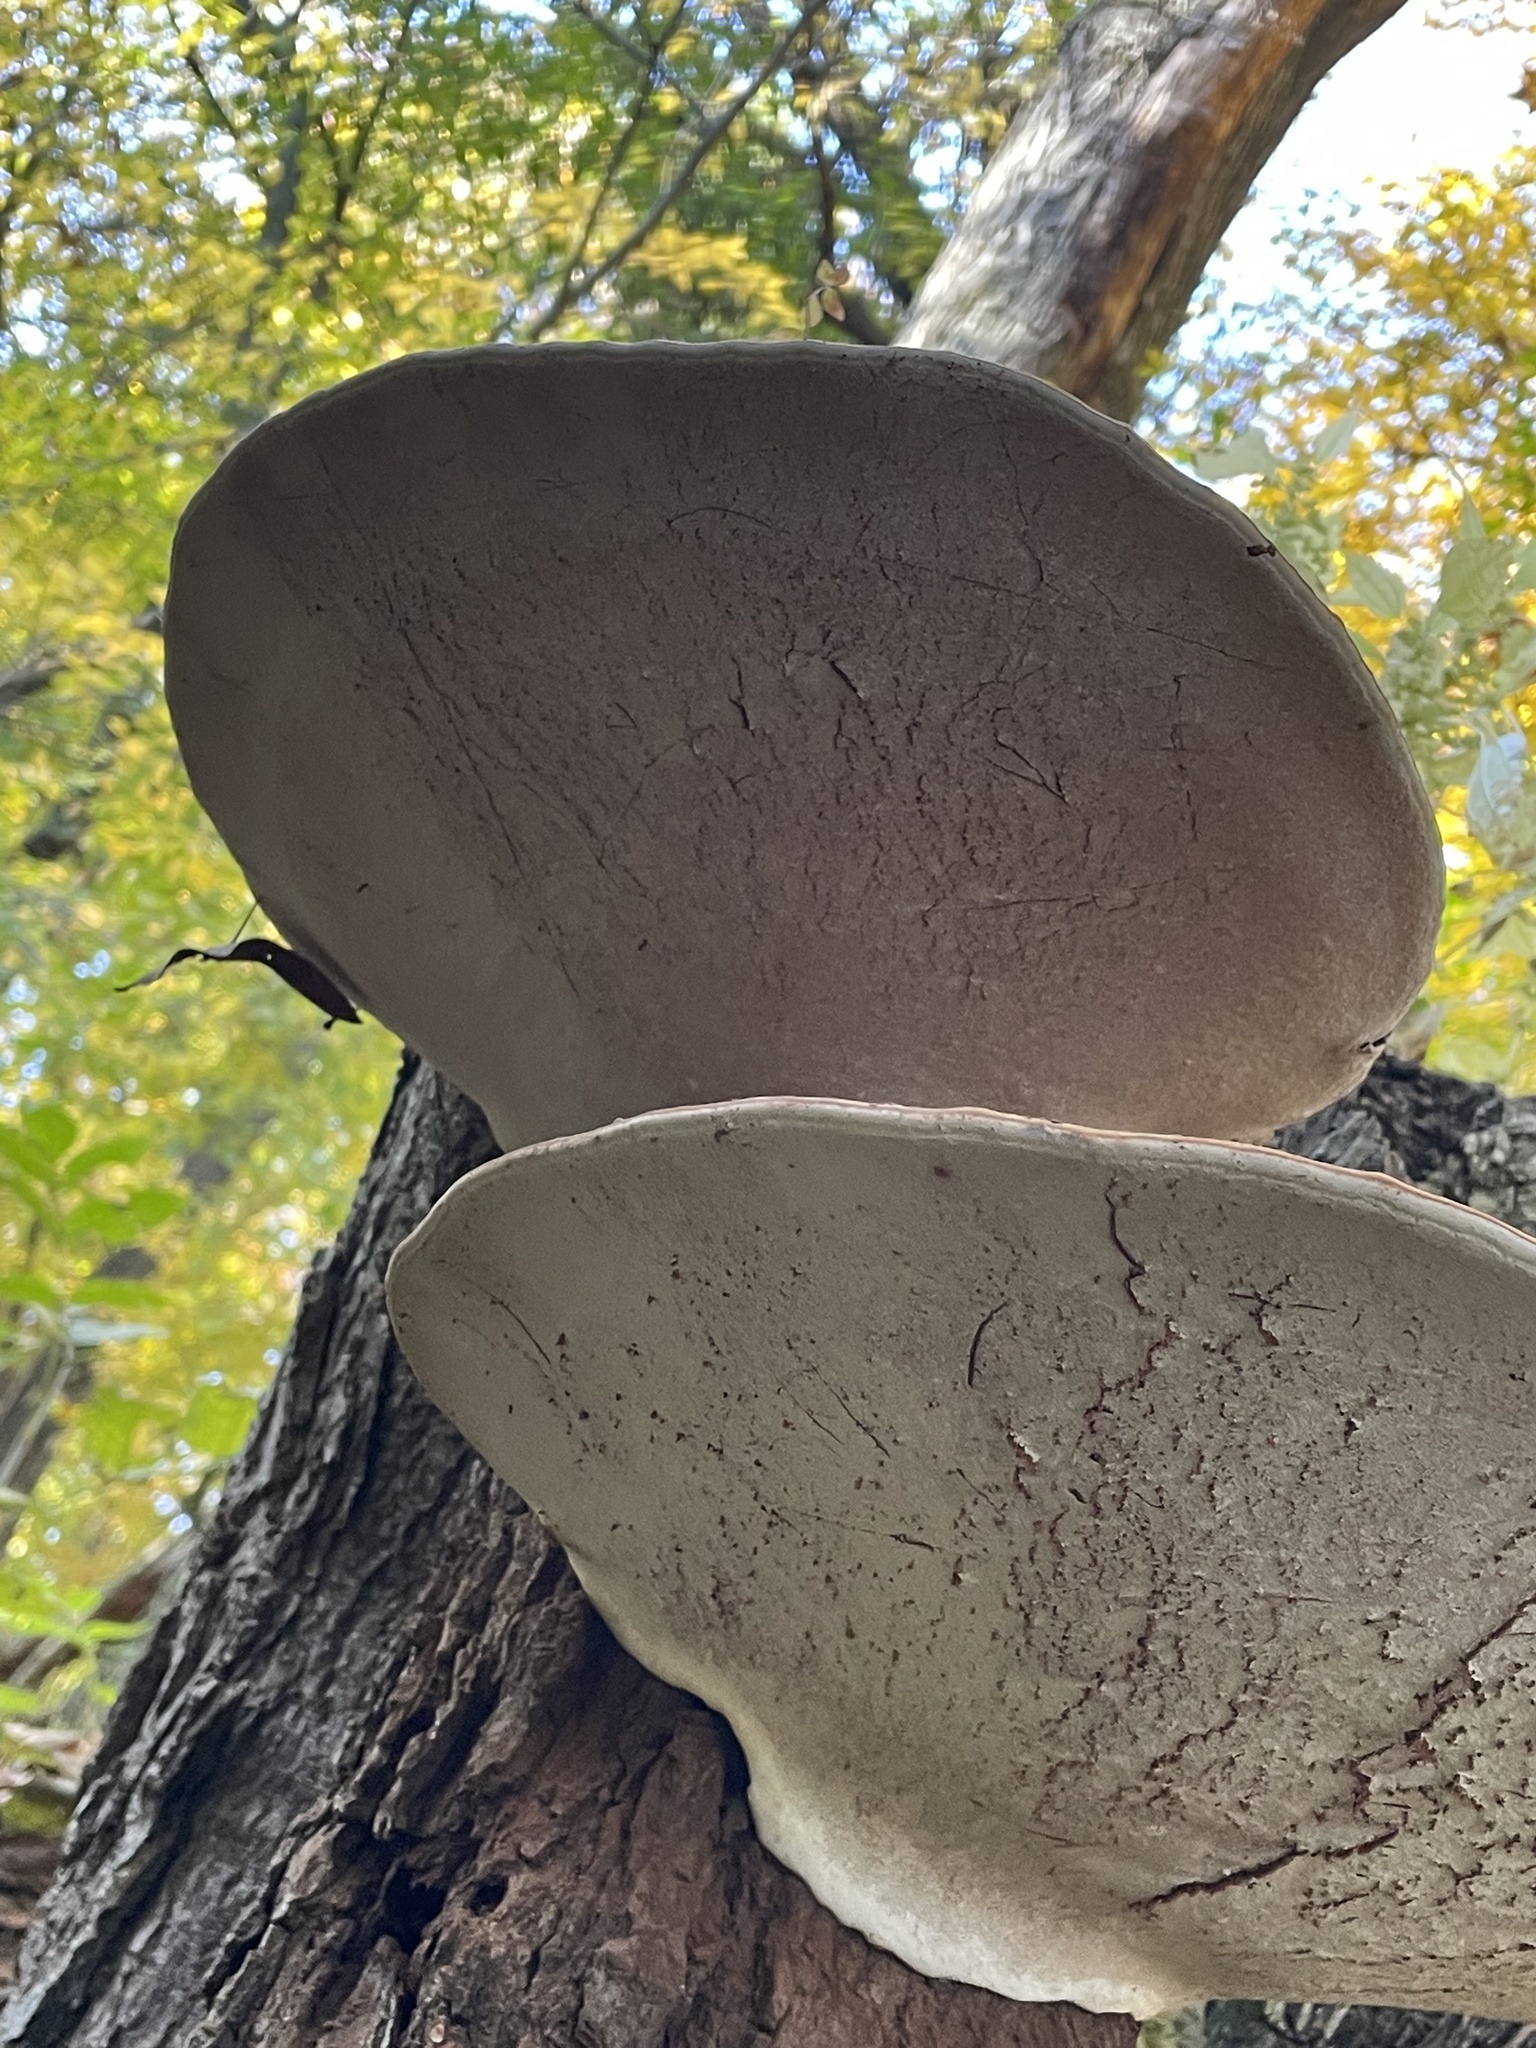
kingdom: Fungi
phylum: Basidiomycota
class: Agaricomycetes
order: Polyporales
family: Polyporaceae
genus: Ganoderma
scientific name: Ganoderma applanatum
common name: Artist's bracket
